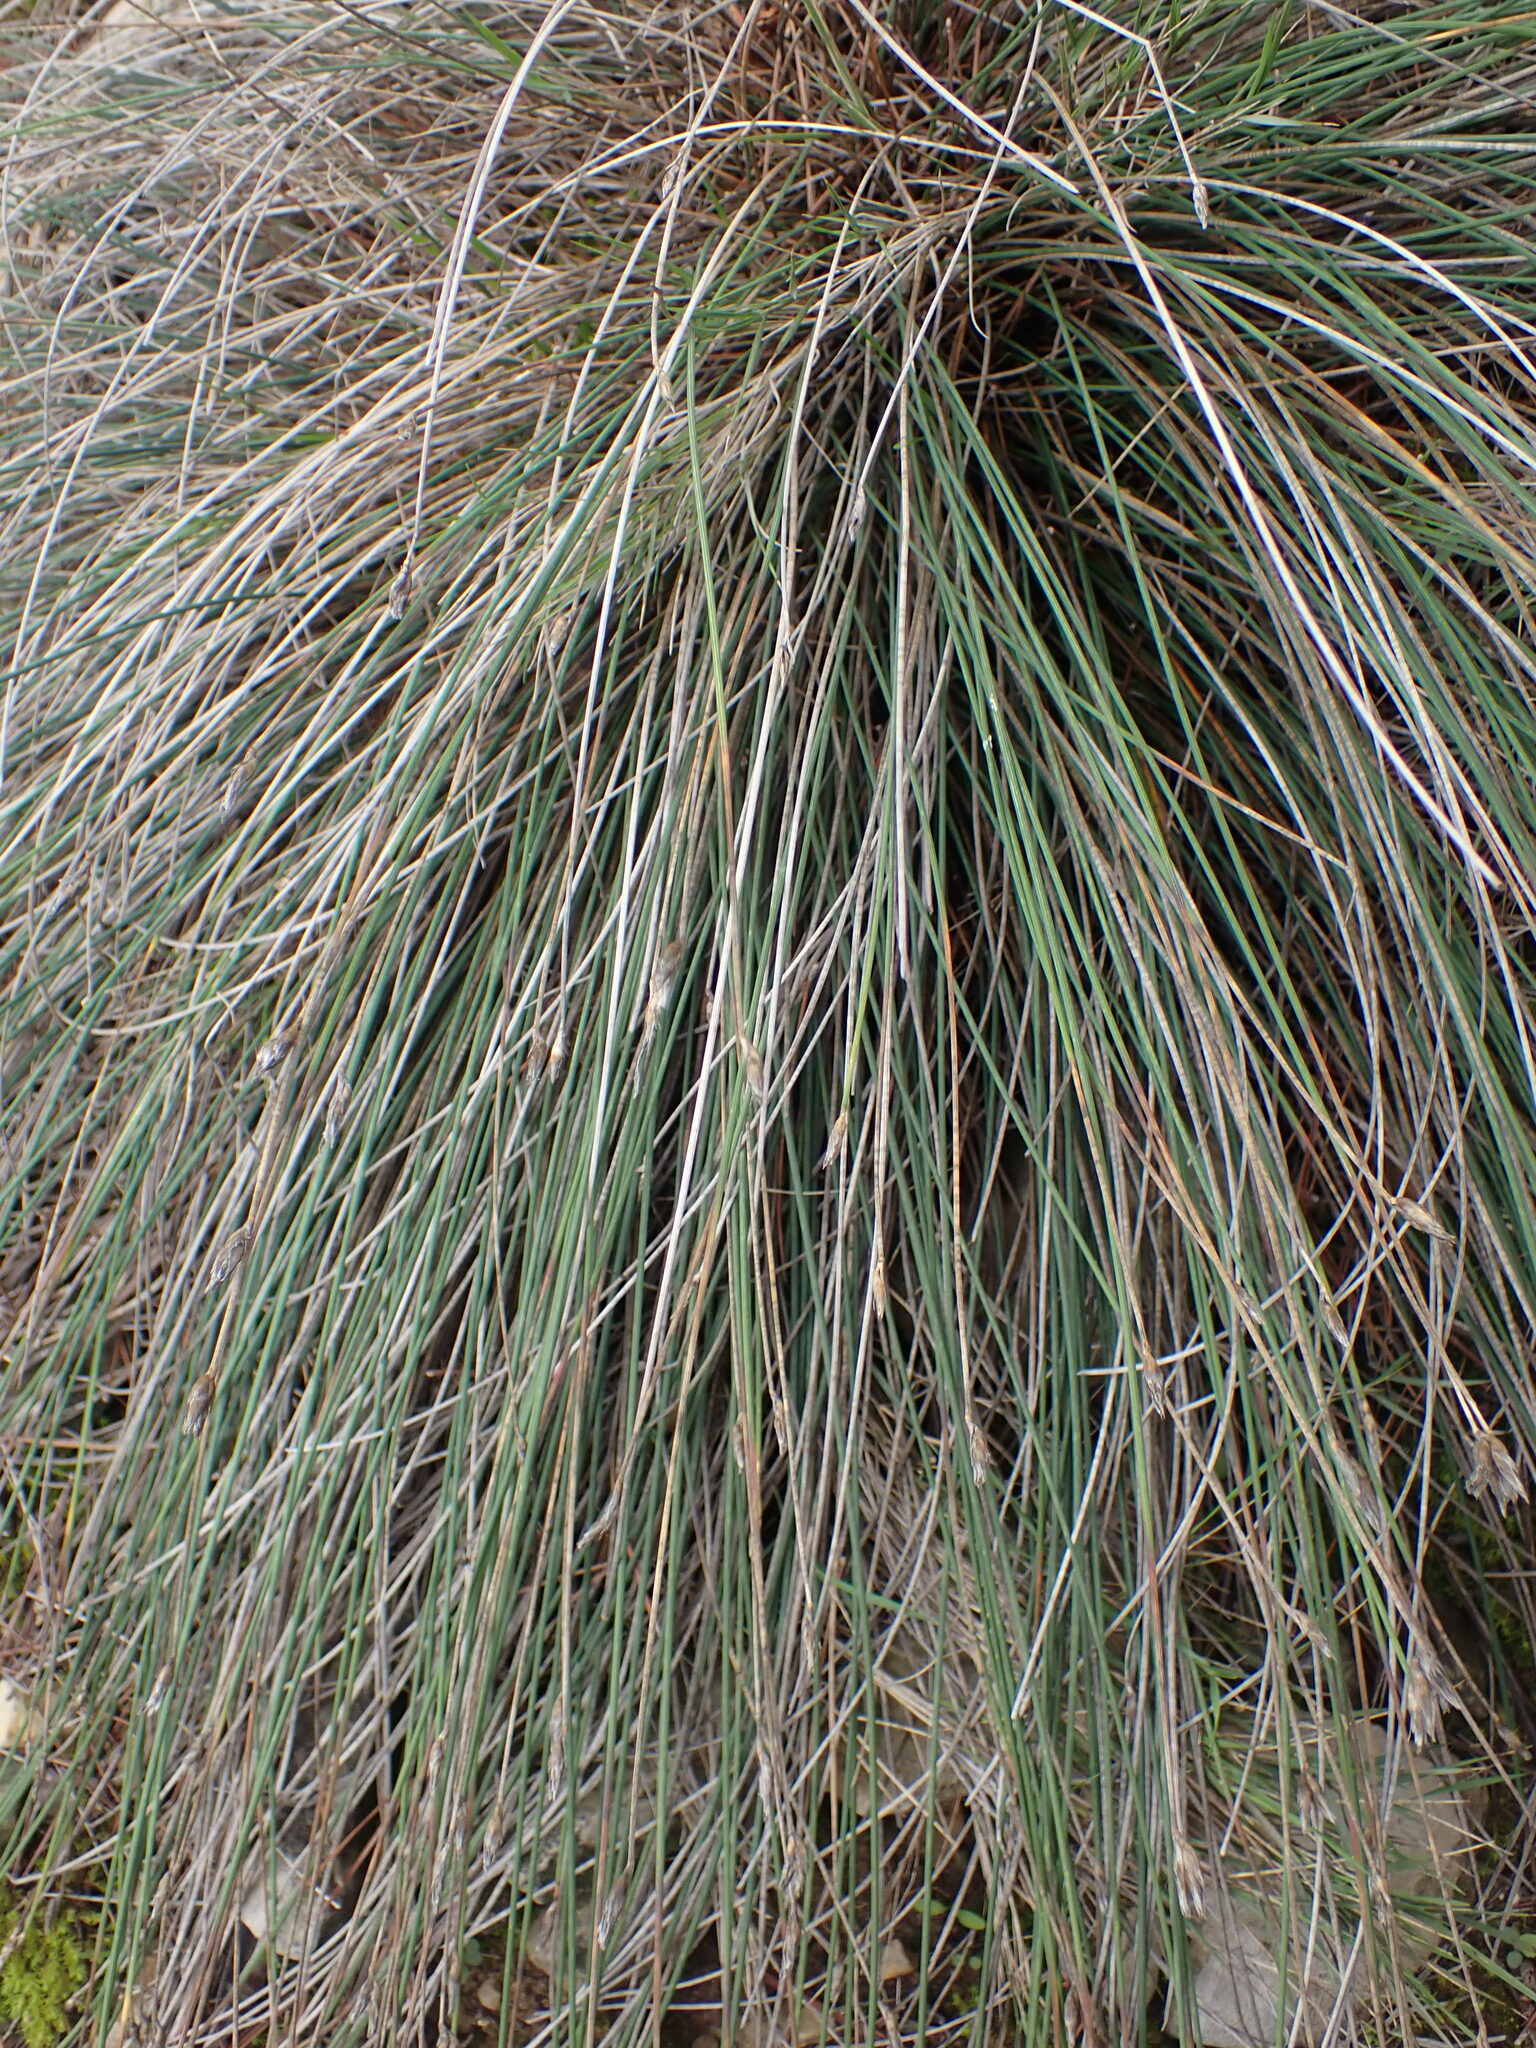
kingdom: Plantae
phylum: Tracheophyta
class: Liliopsida
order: Asparagales
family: Asparagaceae
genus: Aphyllanthes
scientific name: Aphyllanthes monspeliensis
